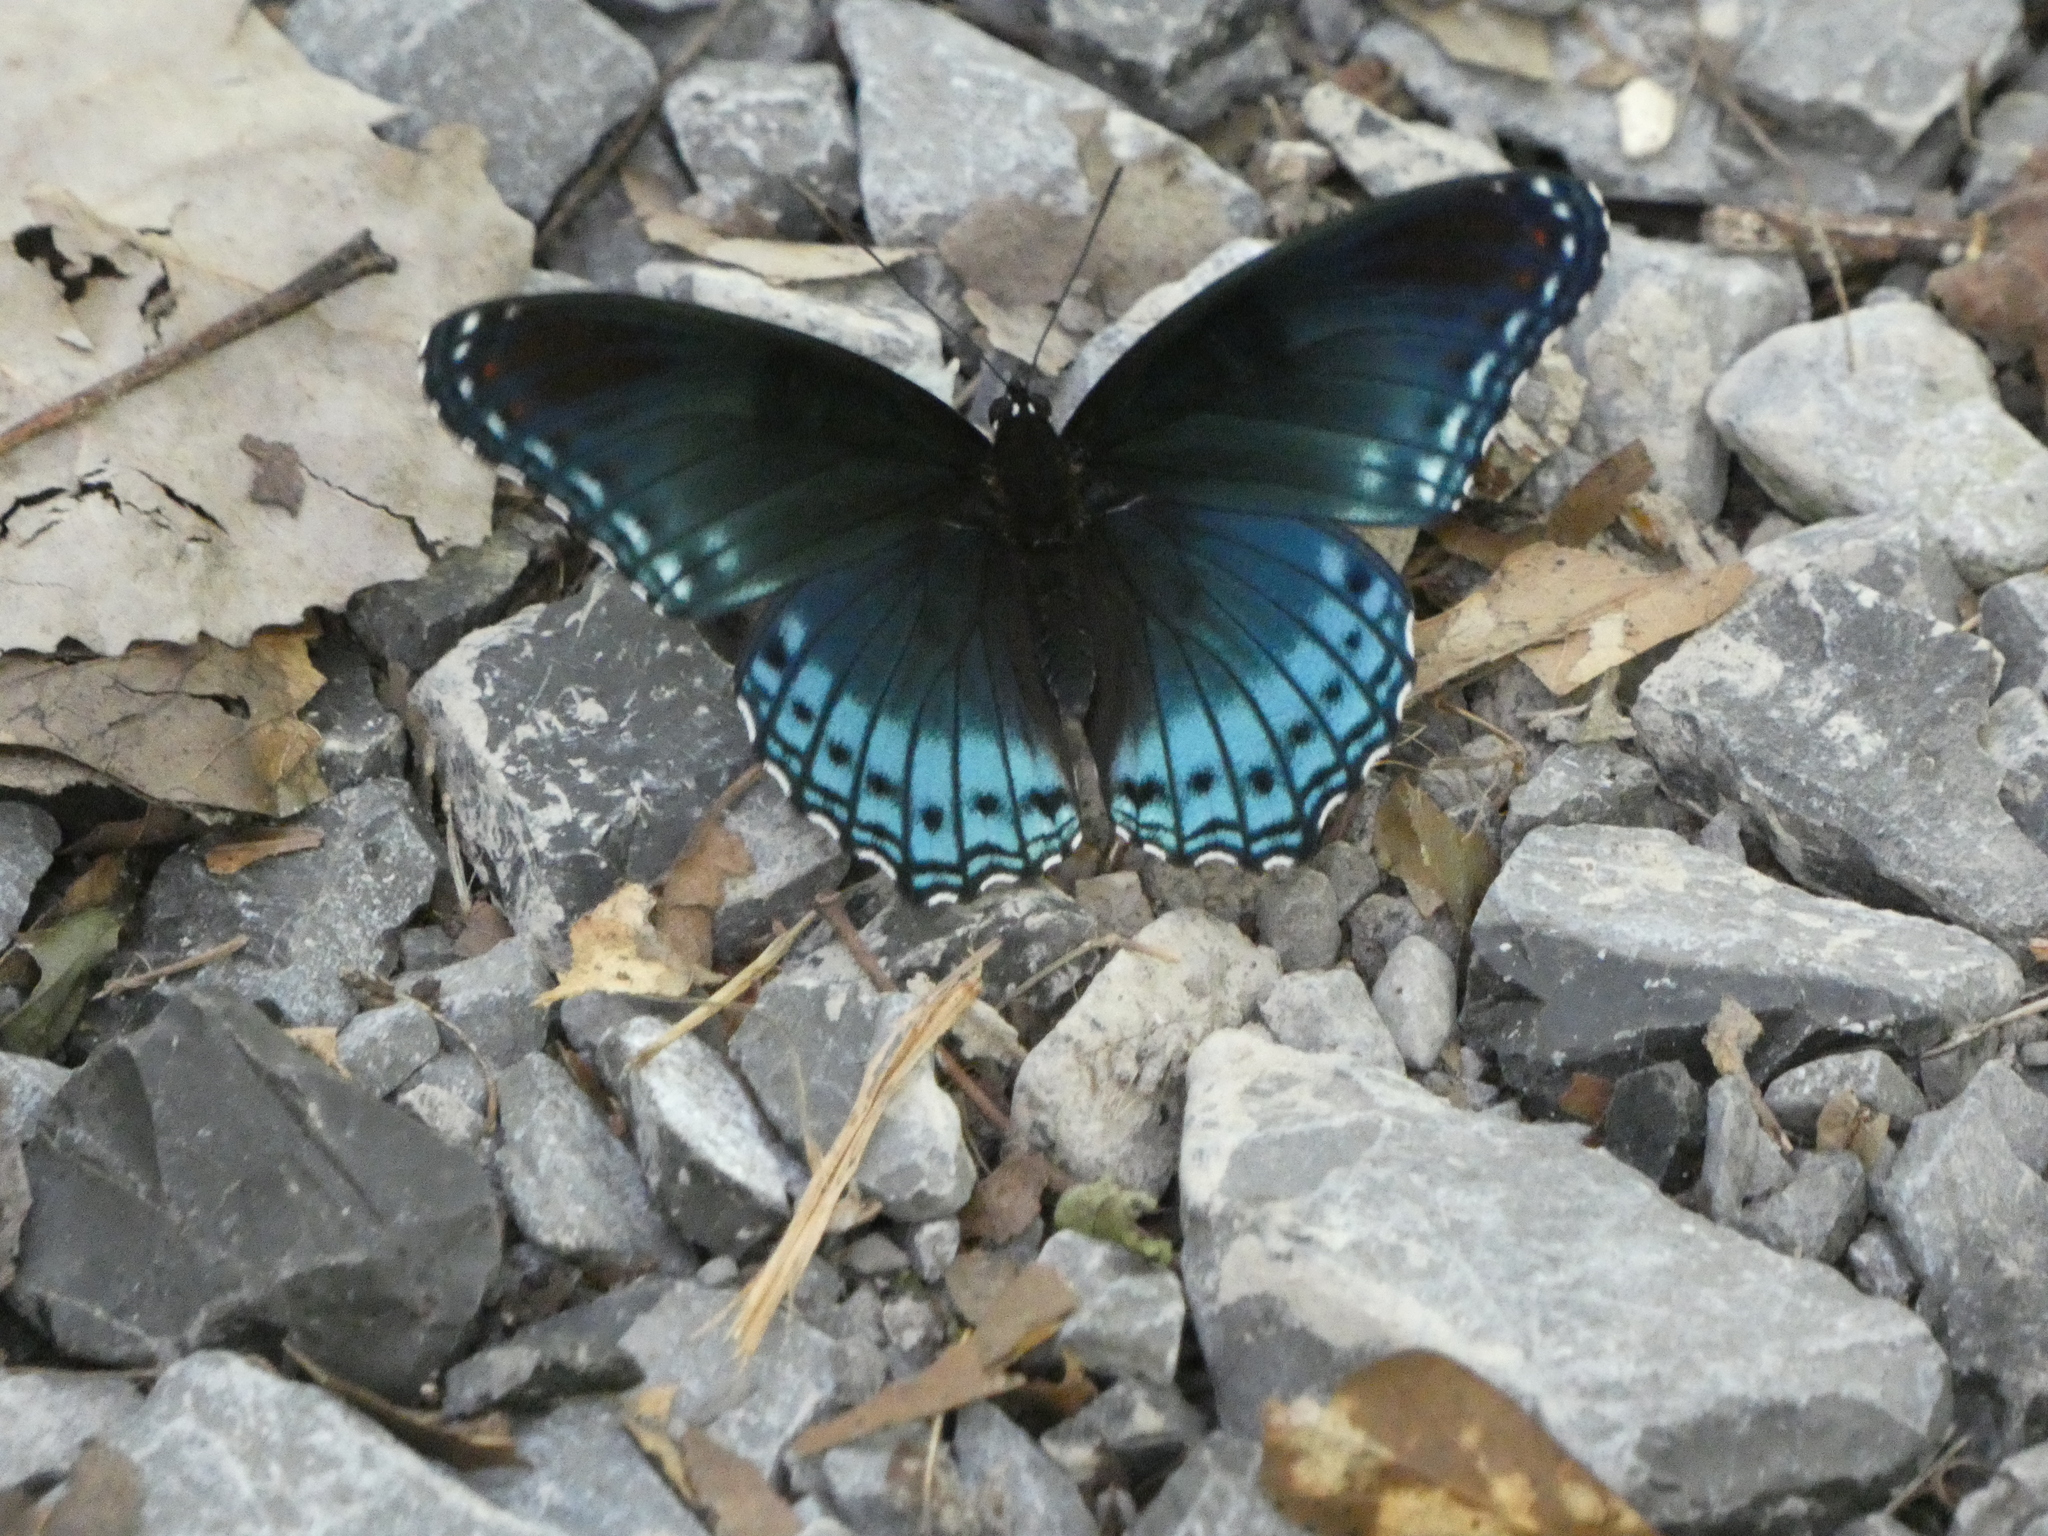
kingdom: Animalia
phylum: Arthropoda
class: Insecta
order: Lepidoptera
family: Nymphalidae
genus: Limenitis
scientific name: Limenitis arthemis
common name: Red-spotted admiral
